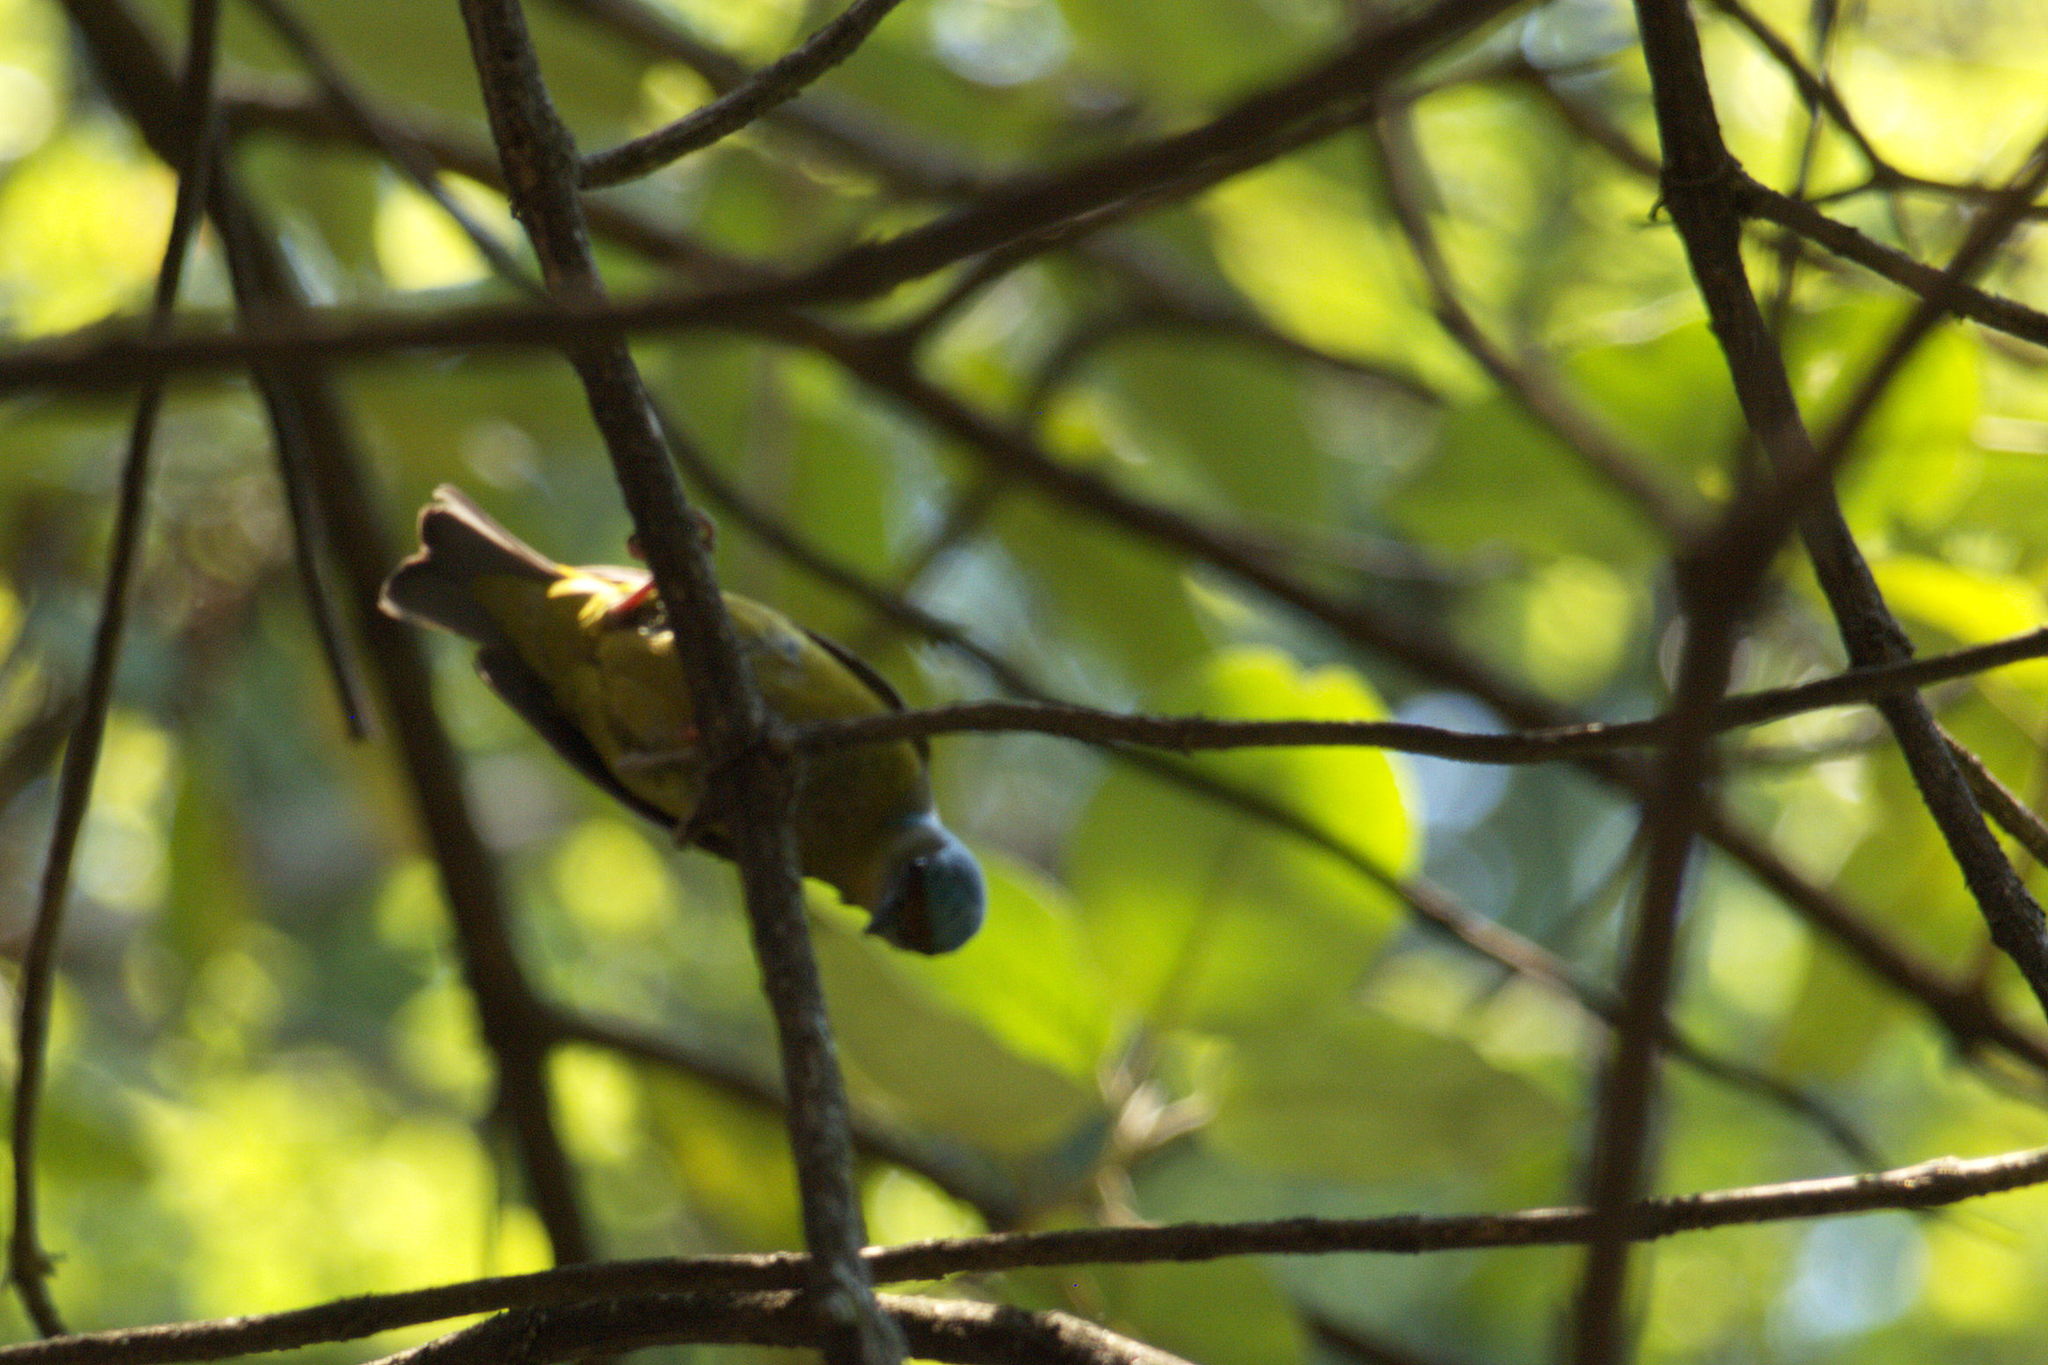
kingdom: Animalia
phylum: Chordata
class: Aves
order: Passeriformes
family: Fringillidae
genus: Euphonia
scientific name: Euphonia elegantissima
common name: Elegant euphonia
